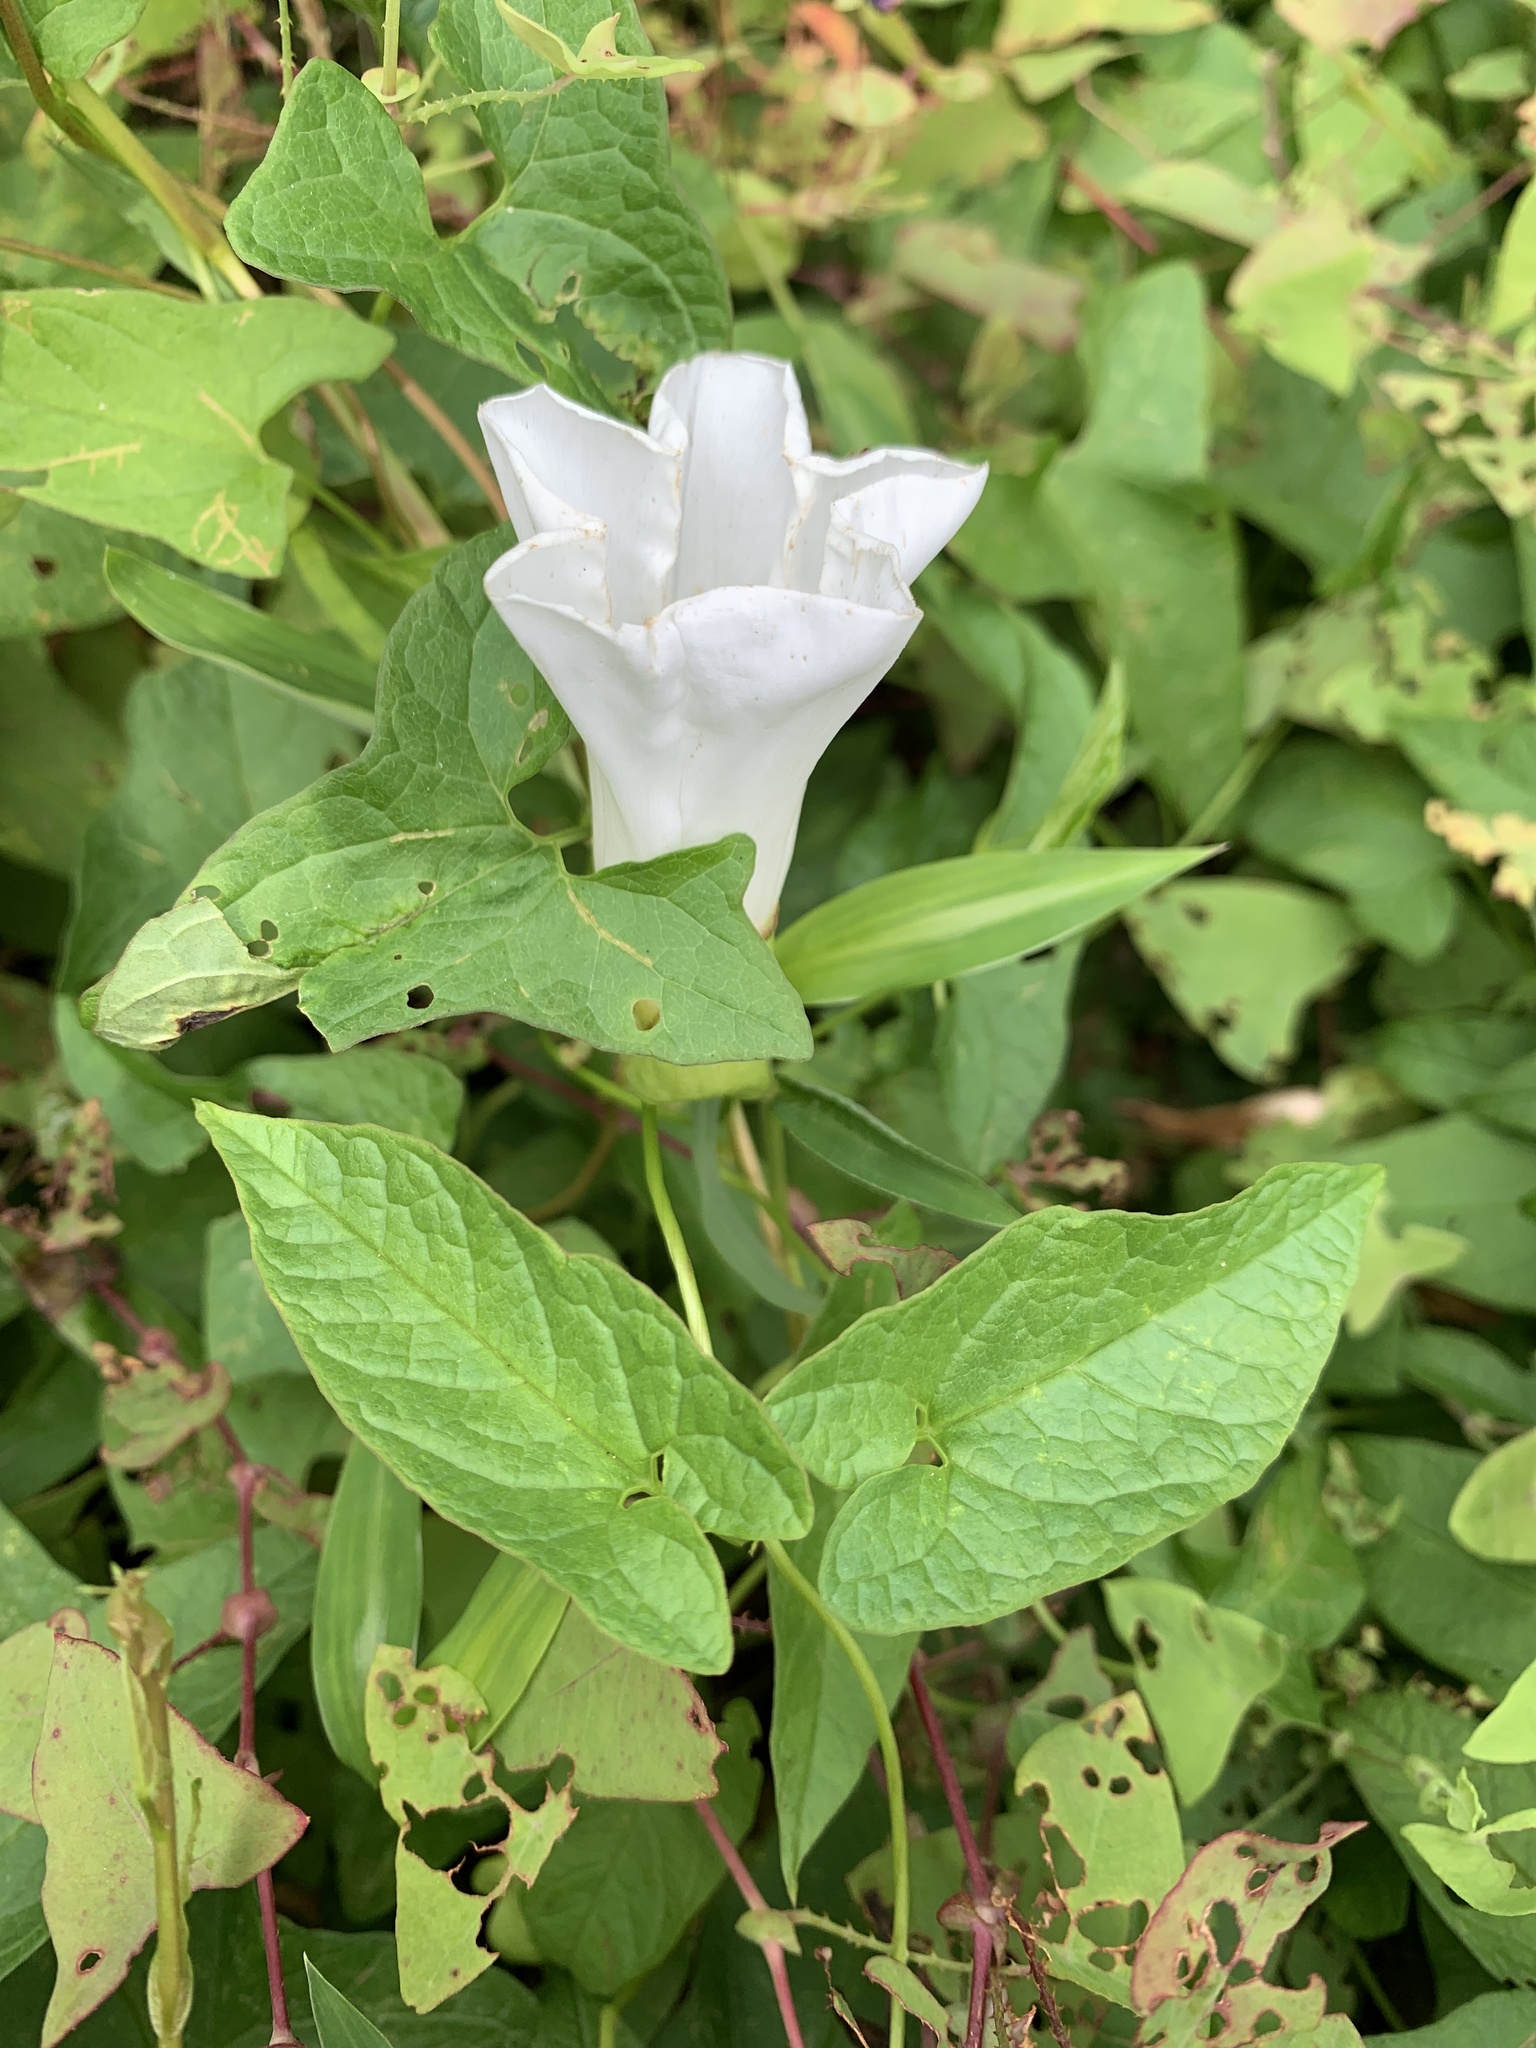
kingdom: Plantae
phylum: Tracheophyta
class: Magnoliopsida
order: Solanales
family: Convolvulaceae
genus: Calystegia
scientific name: Calystegia silvatica
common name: Large bindweed
